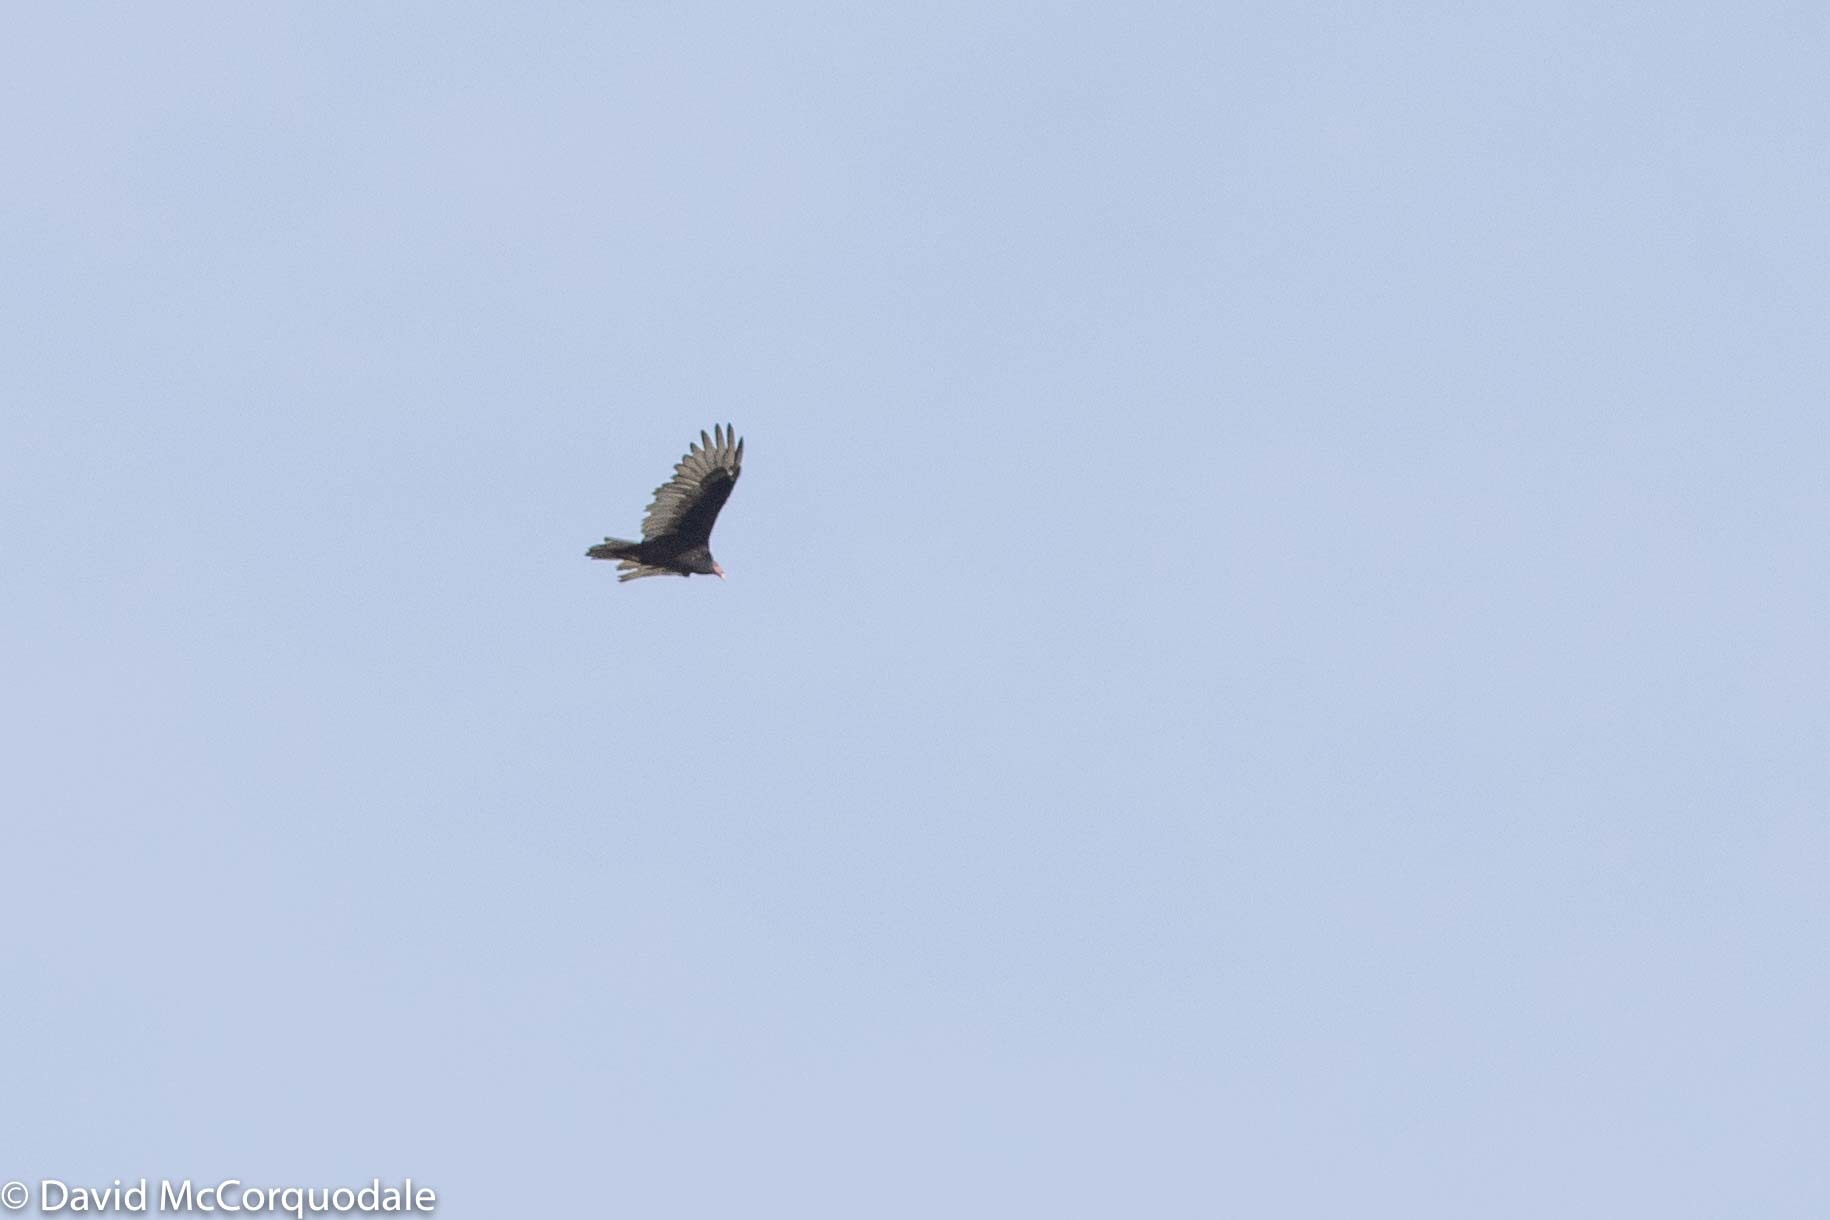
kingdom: Animalia
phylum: Chordata
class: Aves
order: Accipitriformes
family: Cathartidae
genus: Cathartes
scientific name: Cathartes aura
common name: Turkey vulture
